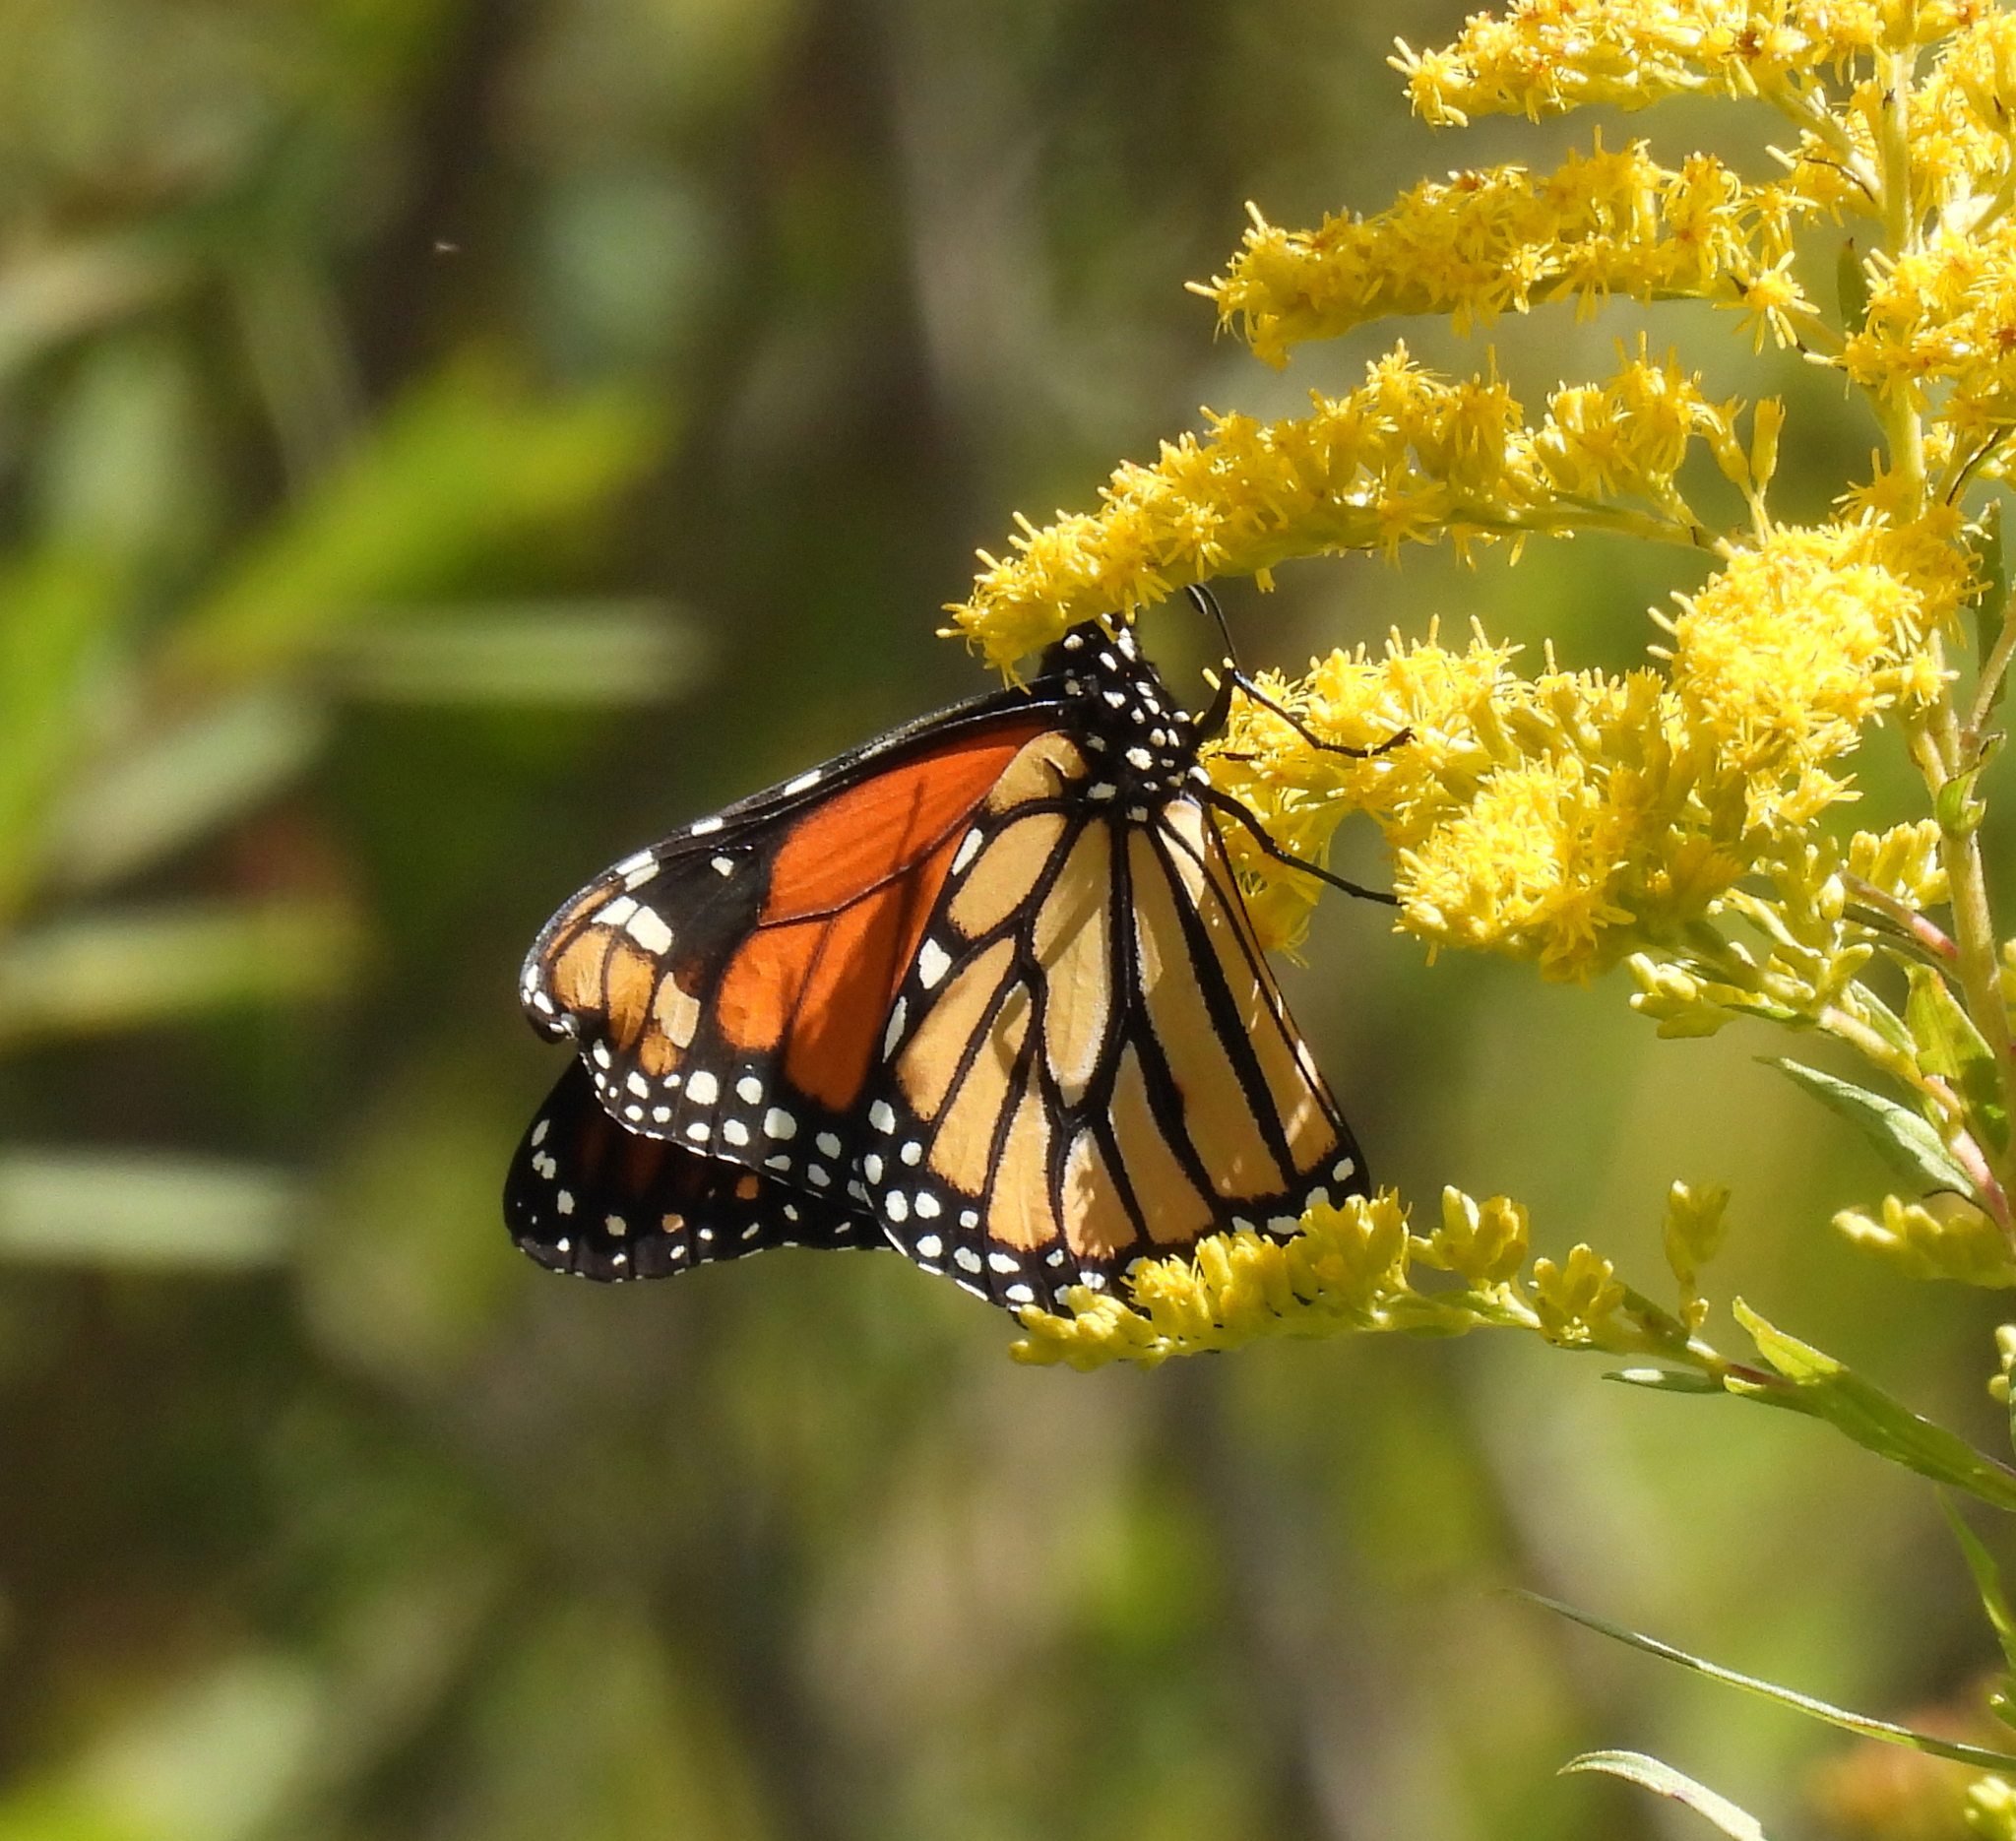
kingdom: Animalia
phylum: Arthropoda
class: Insecta
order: Lepidoptera
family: Nymphalidae
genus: Danaus
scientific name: Danaus plexippus
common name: Monarch
